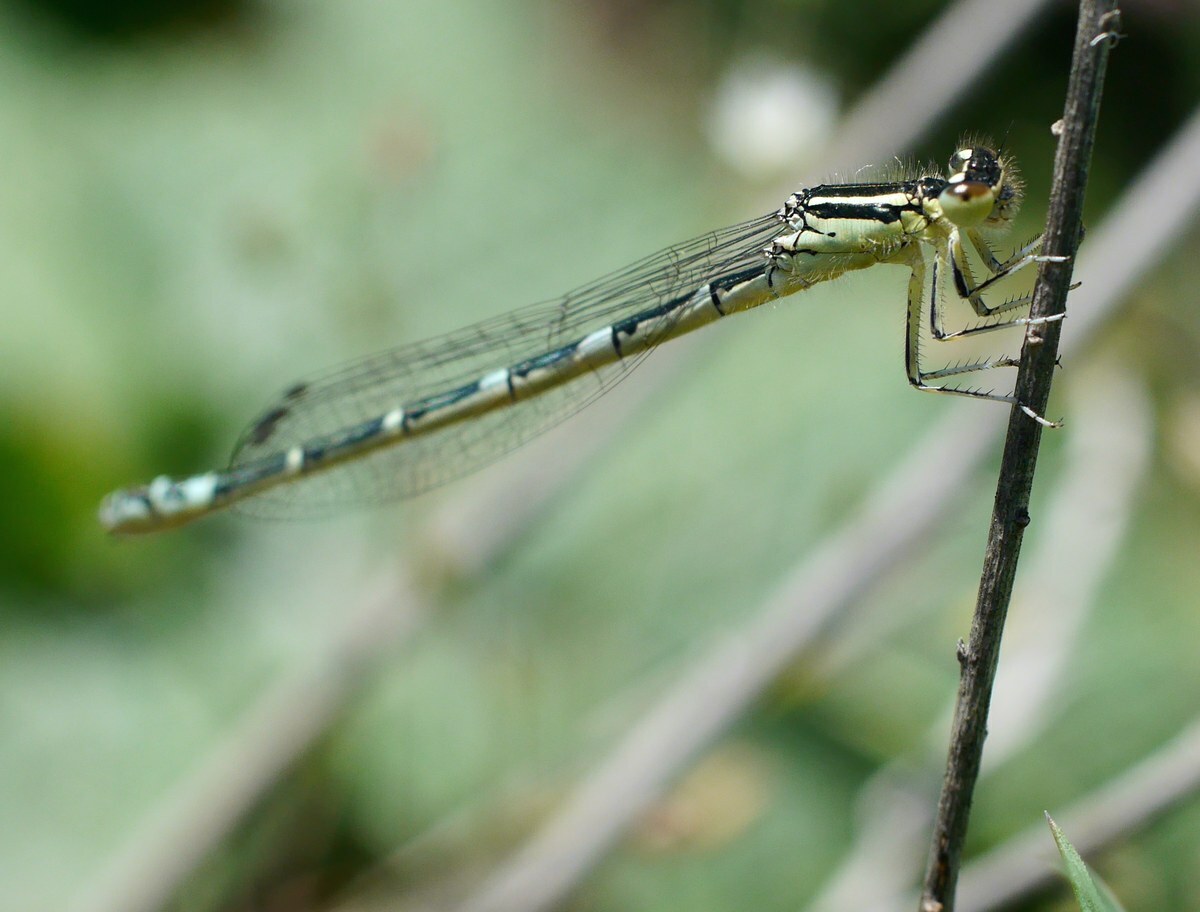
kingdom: Animalia
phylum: Arthropoda
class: Insecta
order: Odonata
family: Coenagrionidae
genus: Coenagrion
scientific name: Coenagrion scitulum
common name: Dainty bluet
